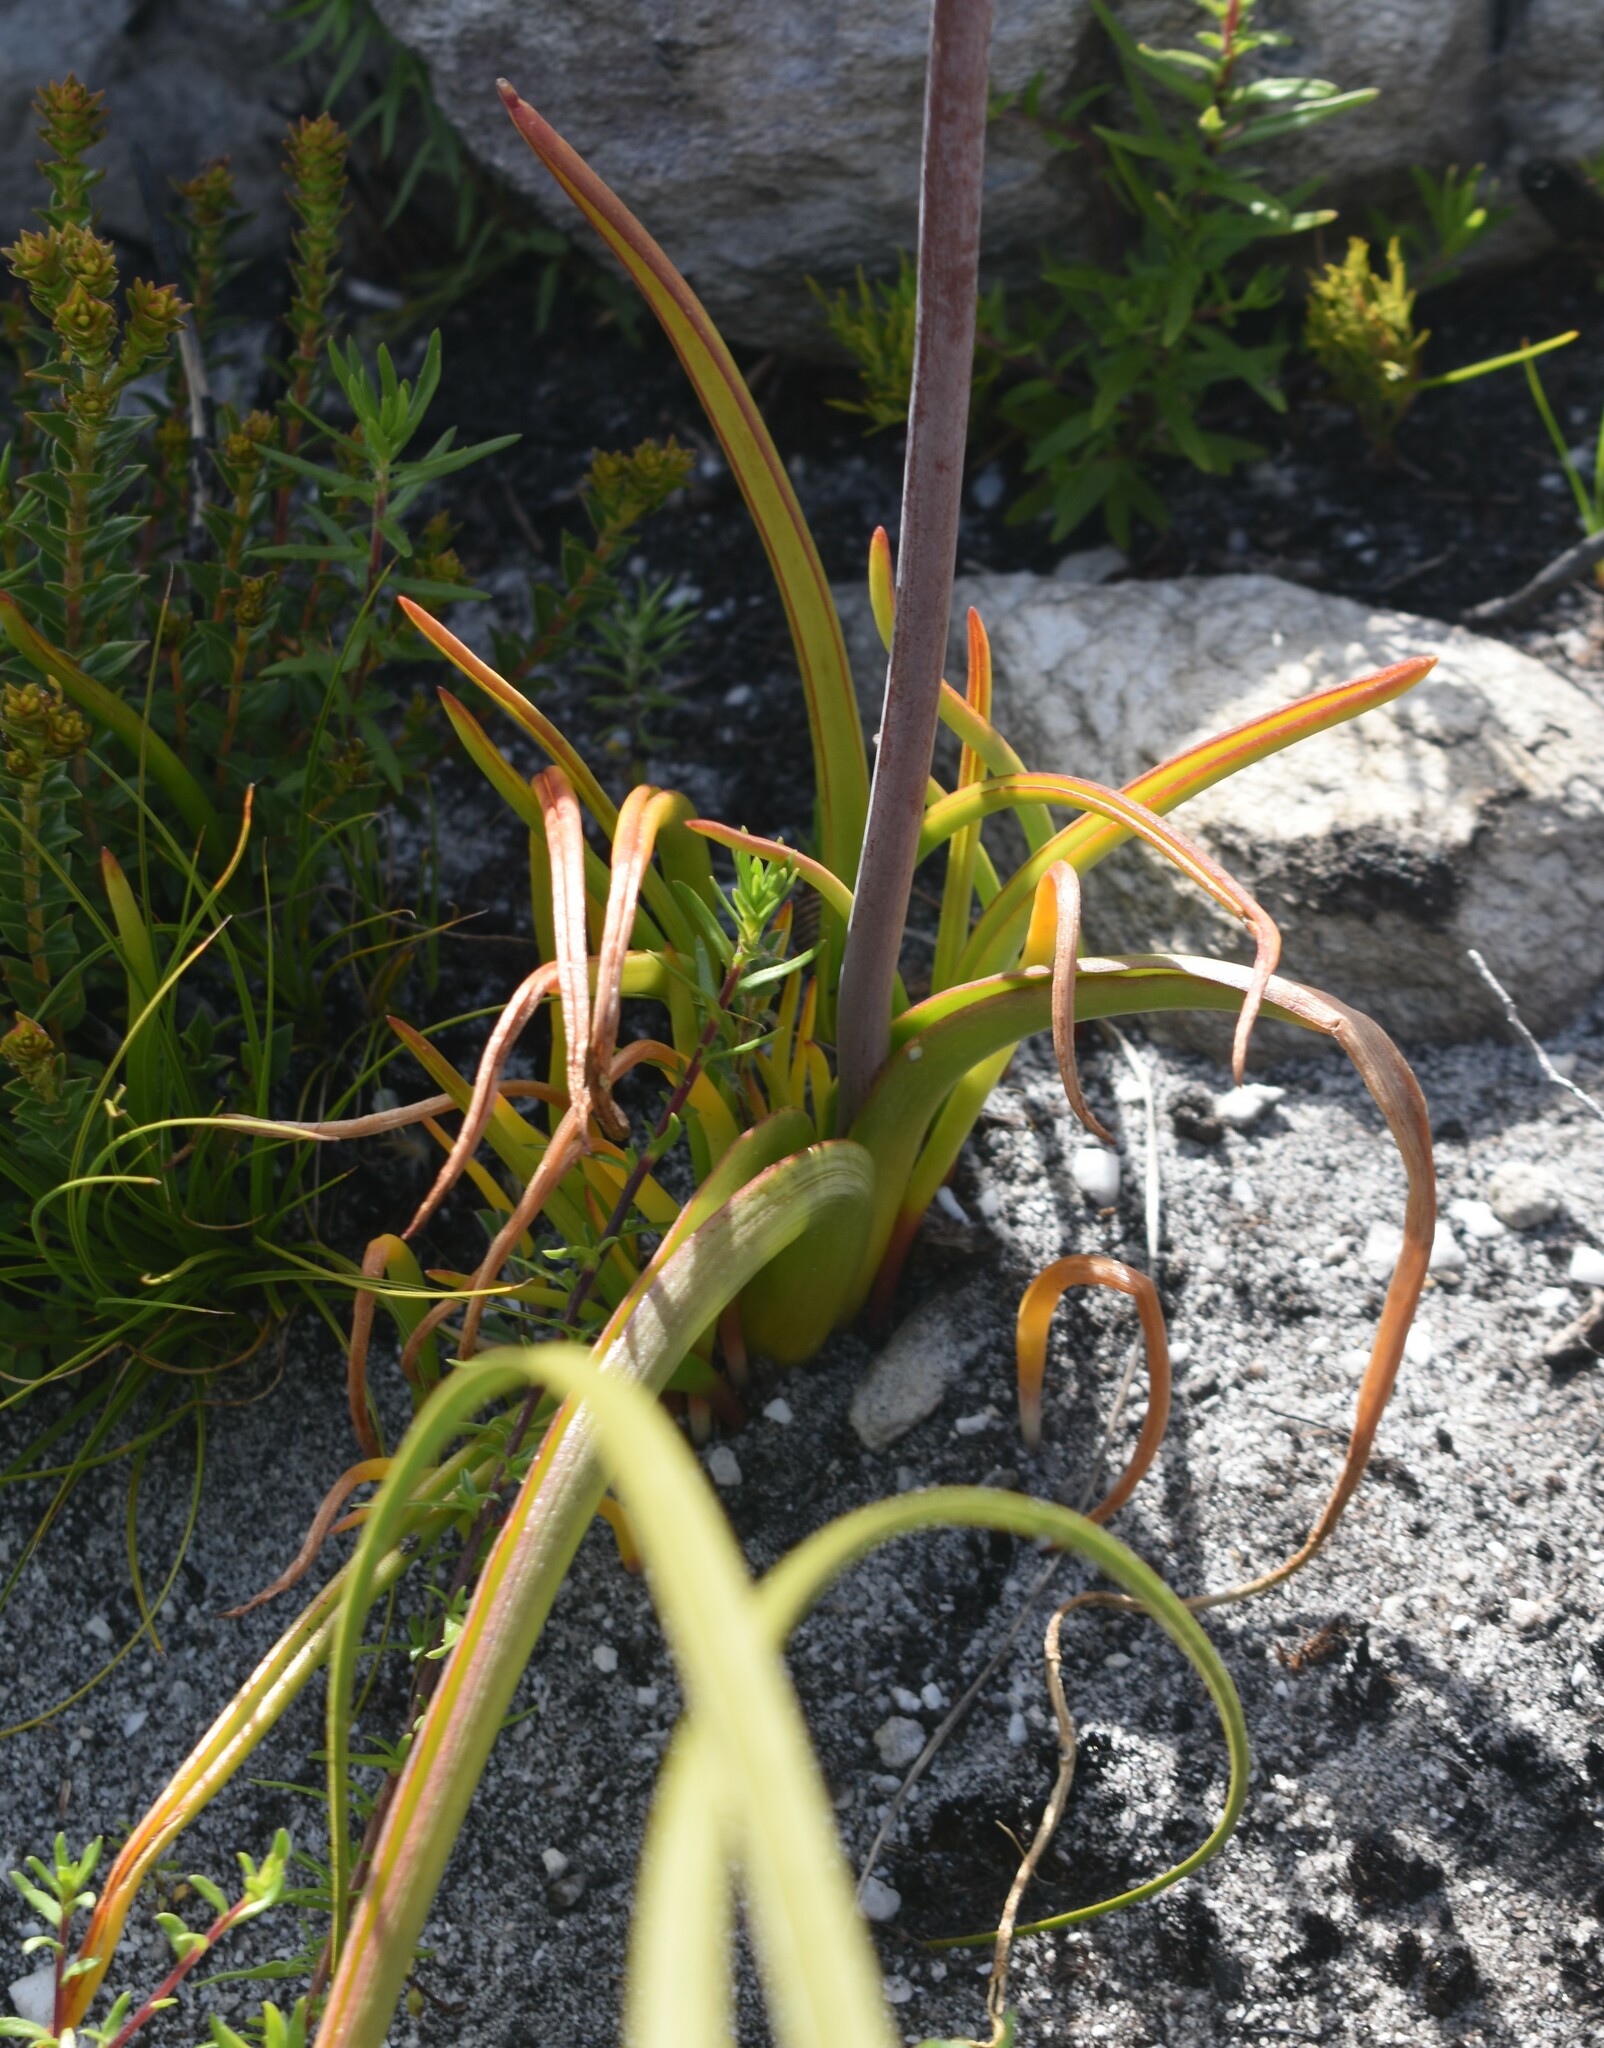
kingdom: Plantae
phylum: Tracheophyta
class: Liliopsida
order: Asparagales
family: Asparagaceae
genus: Lachenalia
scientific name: Lachenalia sargeantii
